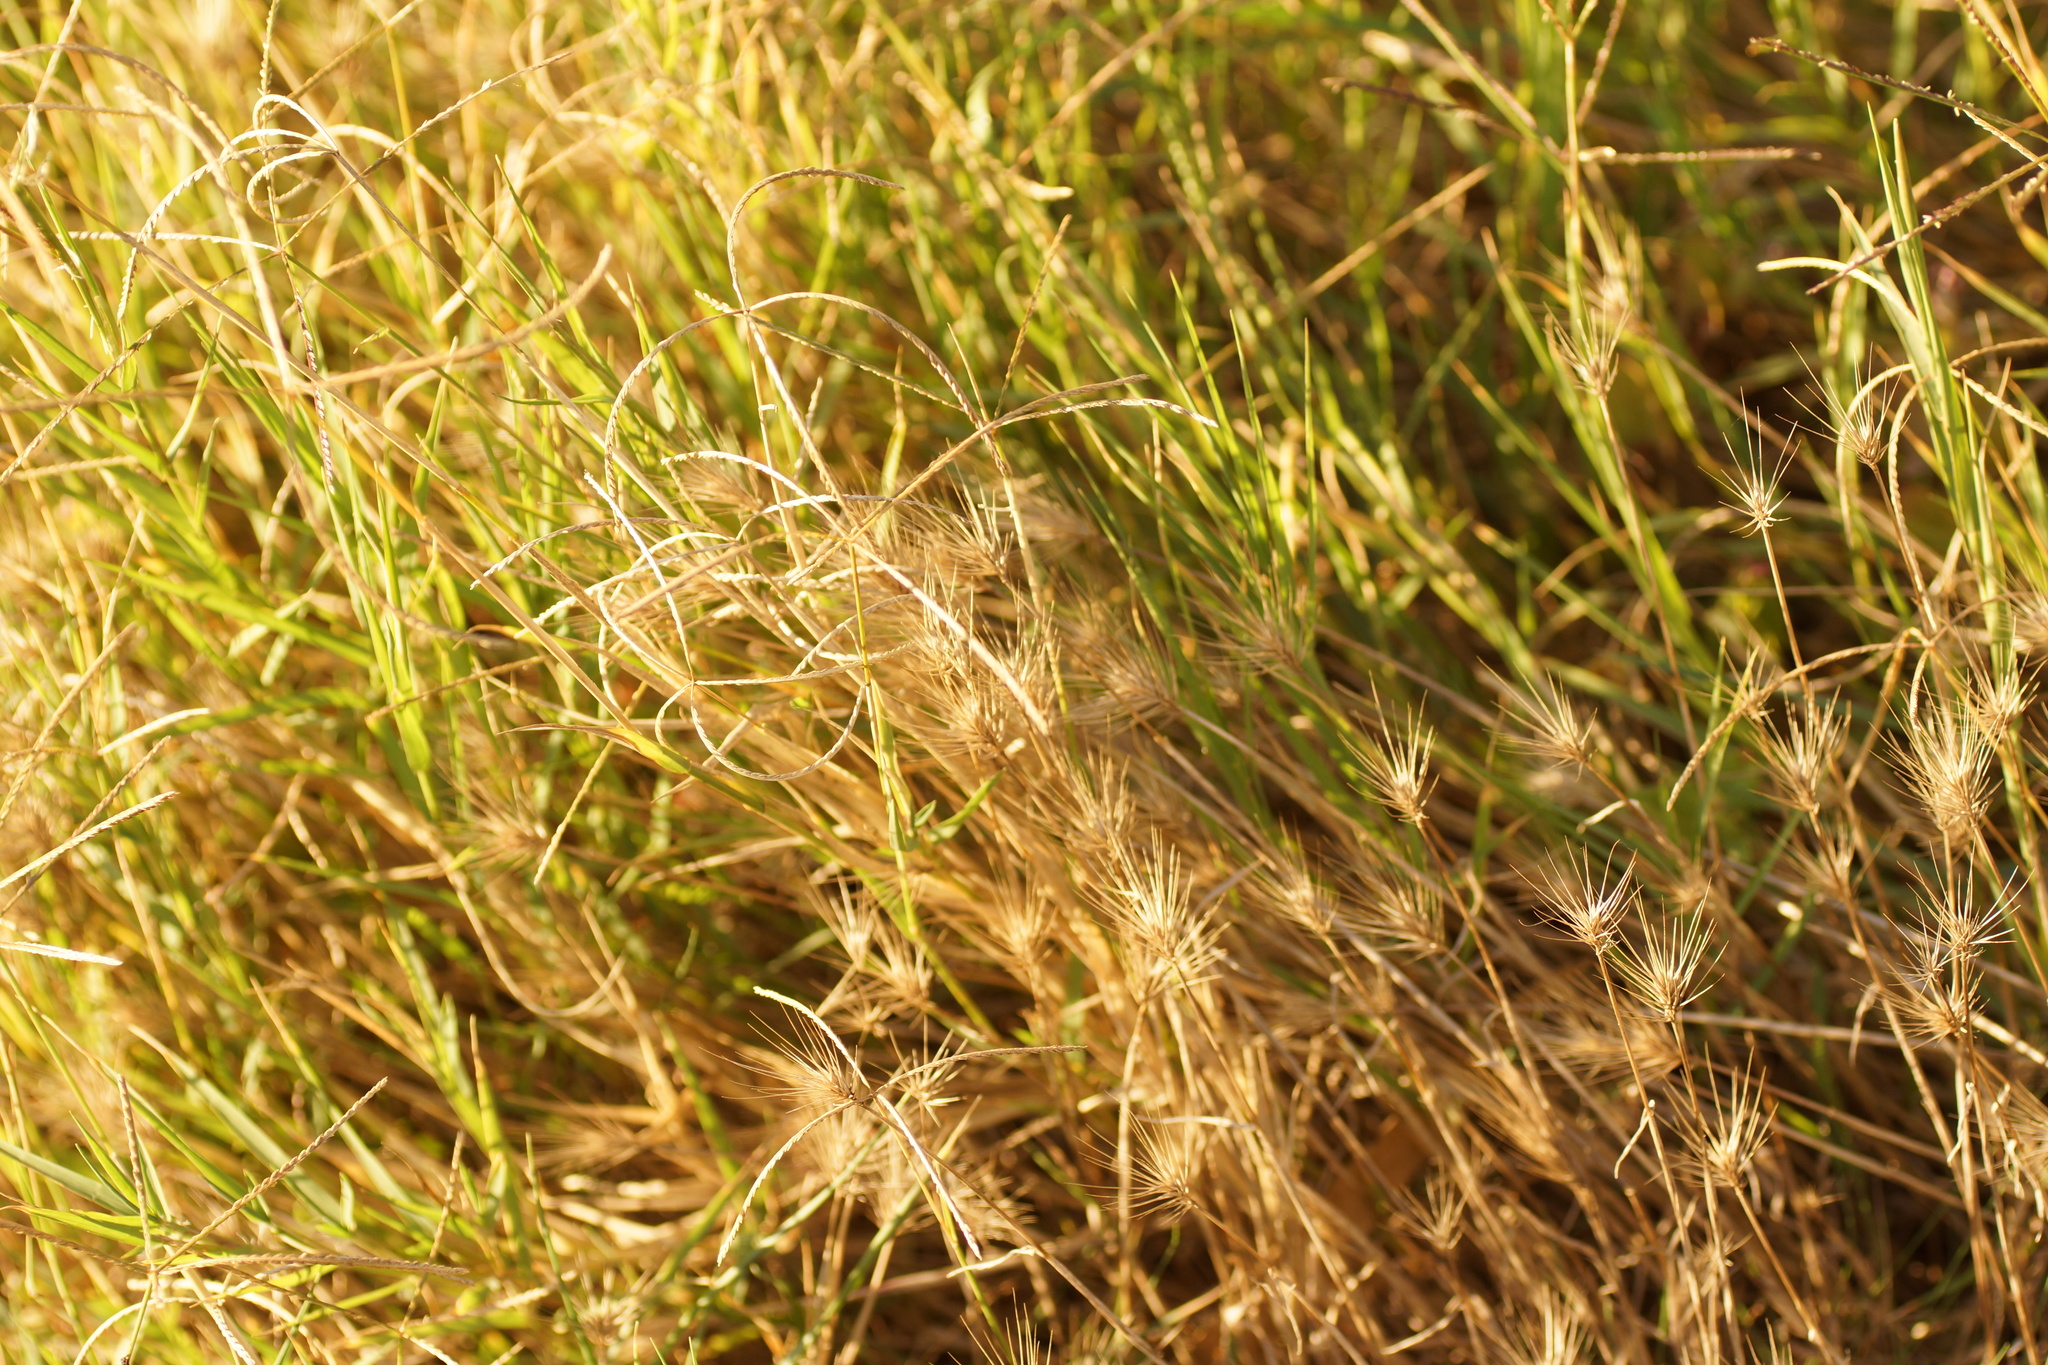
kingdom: Plantae
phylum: Tracheophyta
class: Liliopsida
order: Poales
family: Poaceae
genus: Hordeum
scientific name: Hordeum
